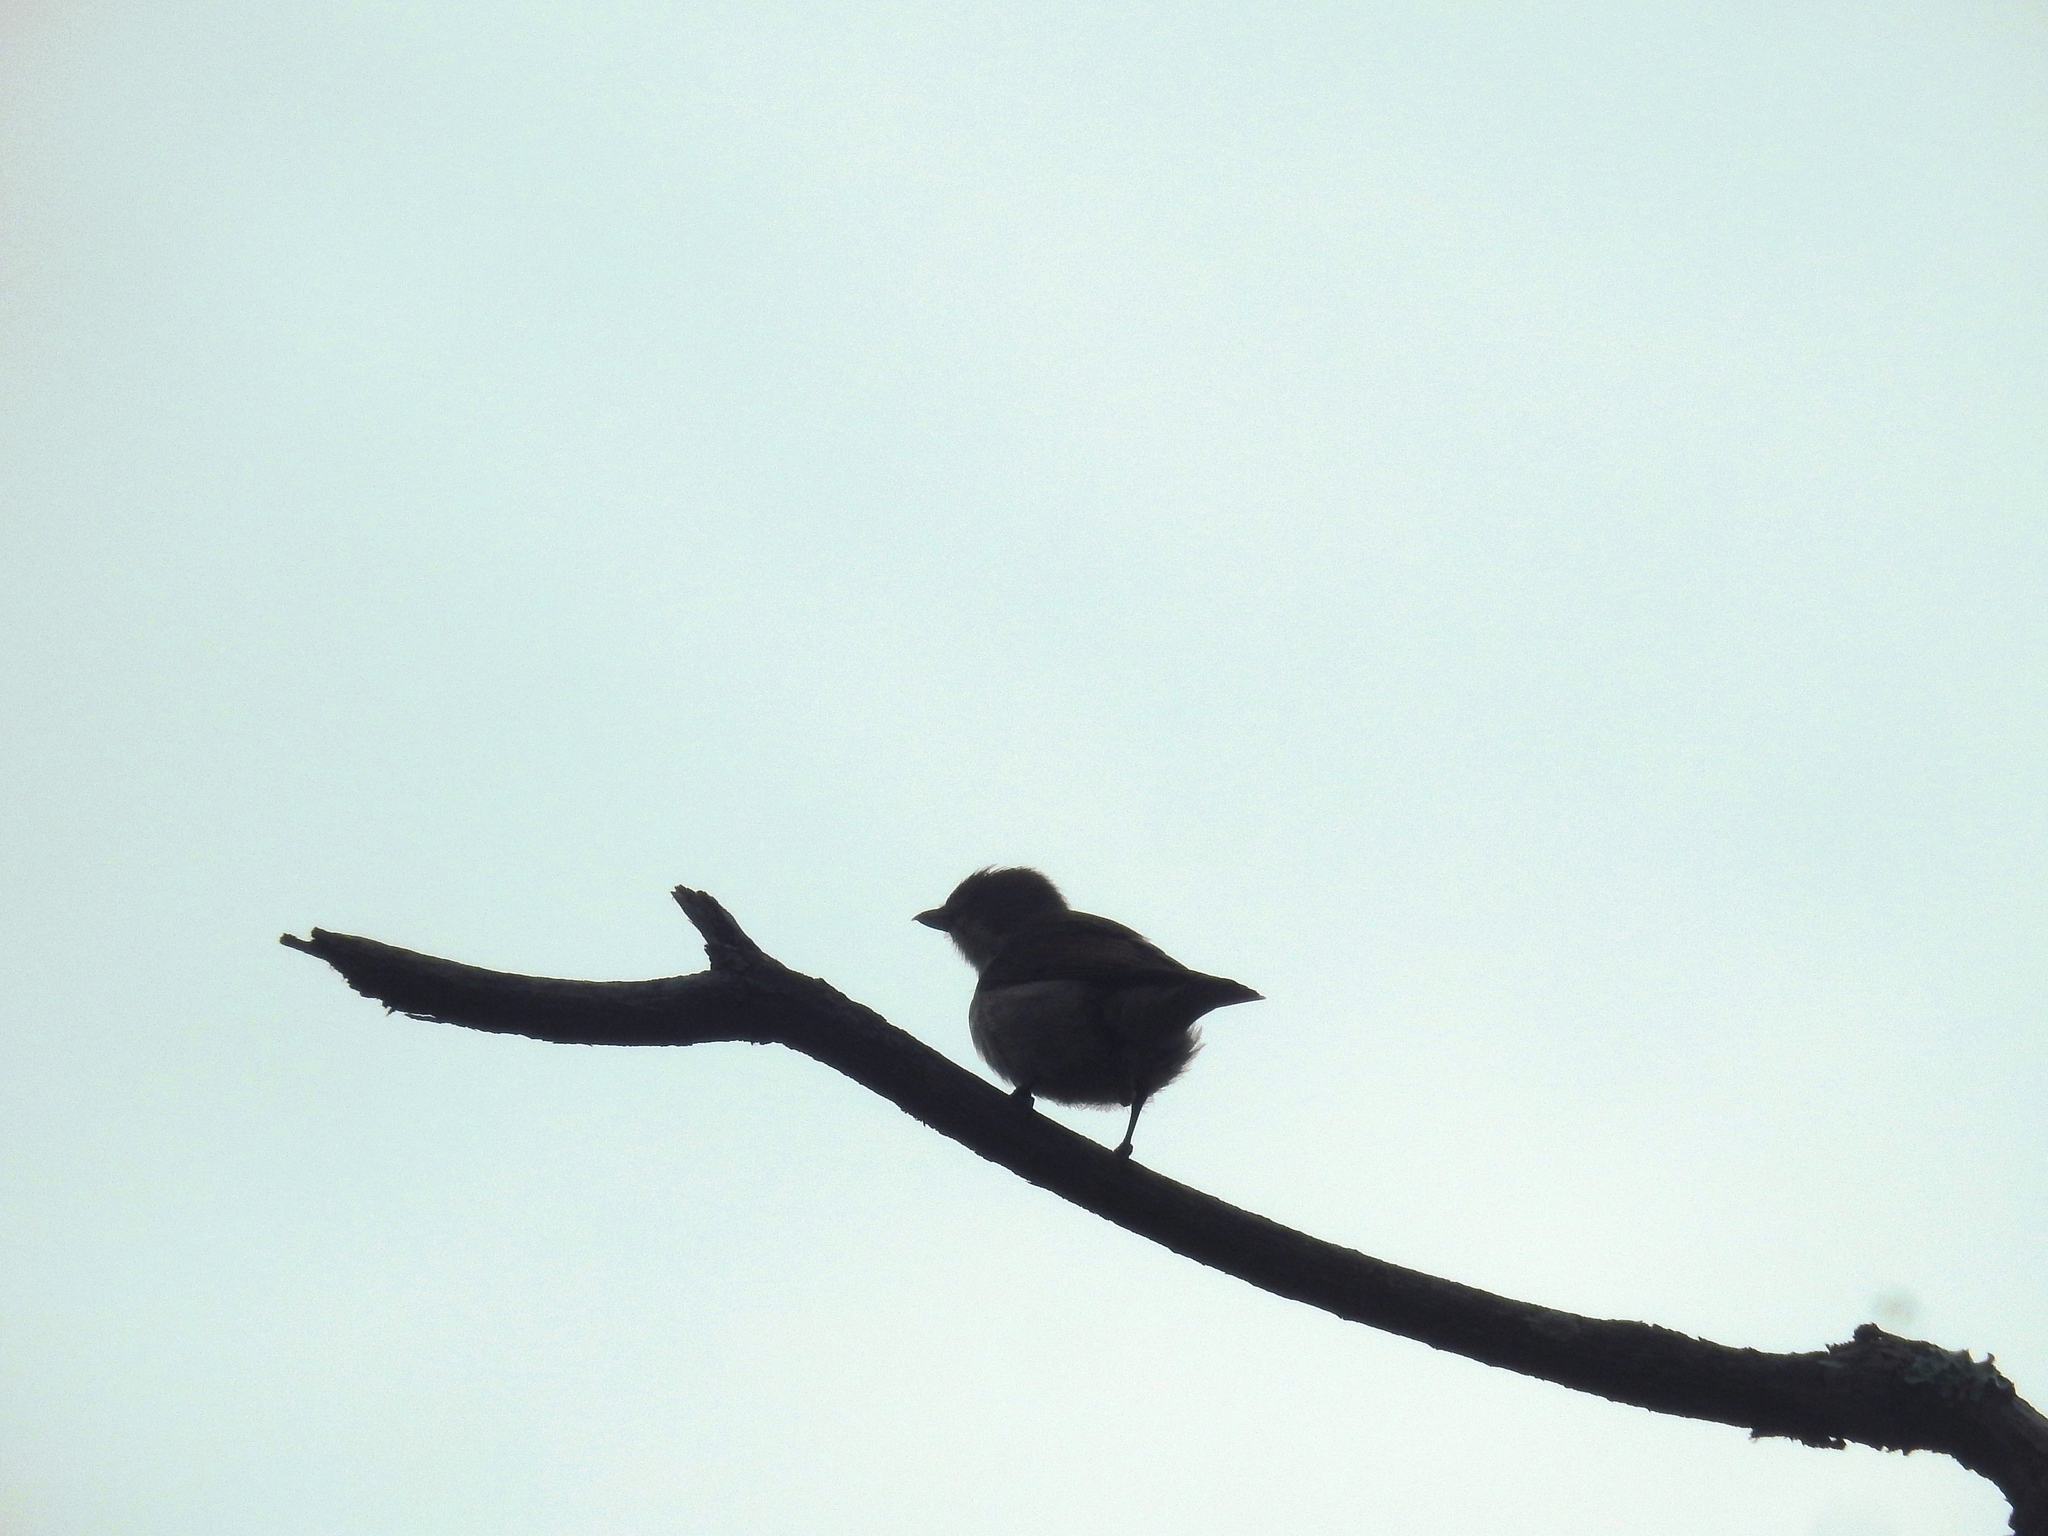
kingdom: Animalia
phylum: Chordata
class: Aves
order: Passeriformes
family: Dicaeidae
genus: Dicaeum
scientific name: Dicaeum agile
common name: Thick-billed flowerpecker
